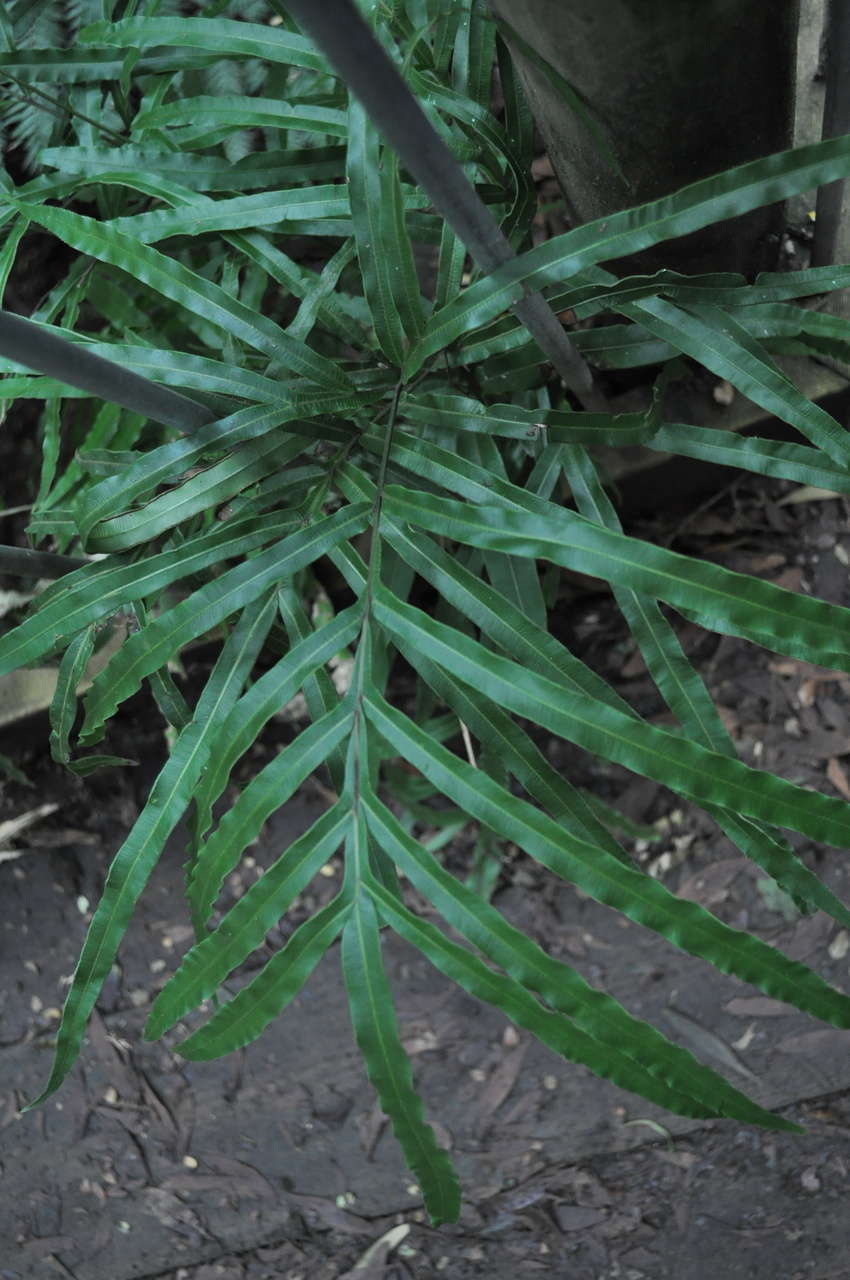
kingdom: Plantae
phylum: Tracheophyta
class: Polypodiopsida
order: Polypodiales
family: Pteridaceae
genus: Pteris
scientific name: Pteris umbrosa
